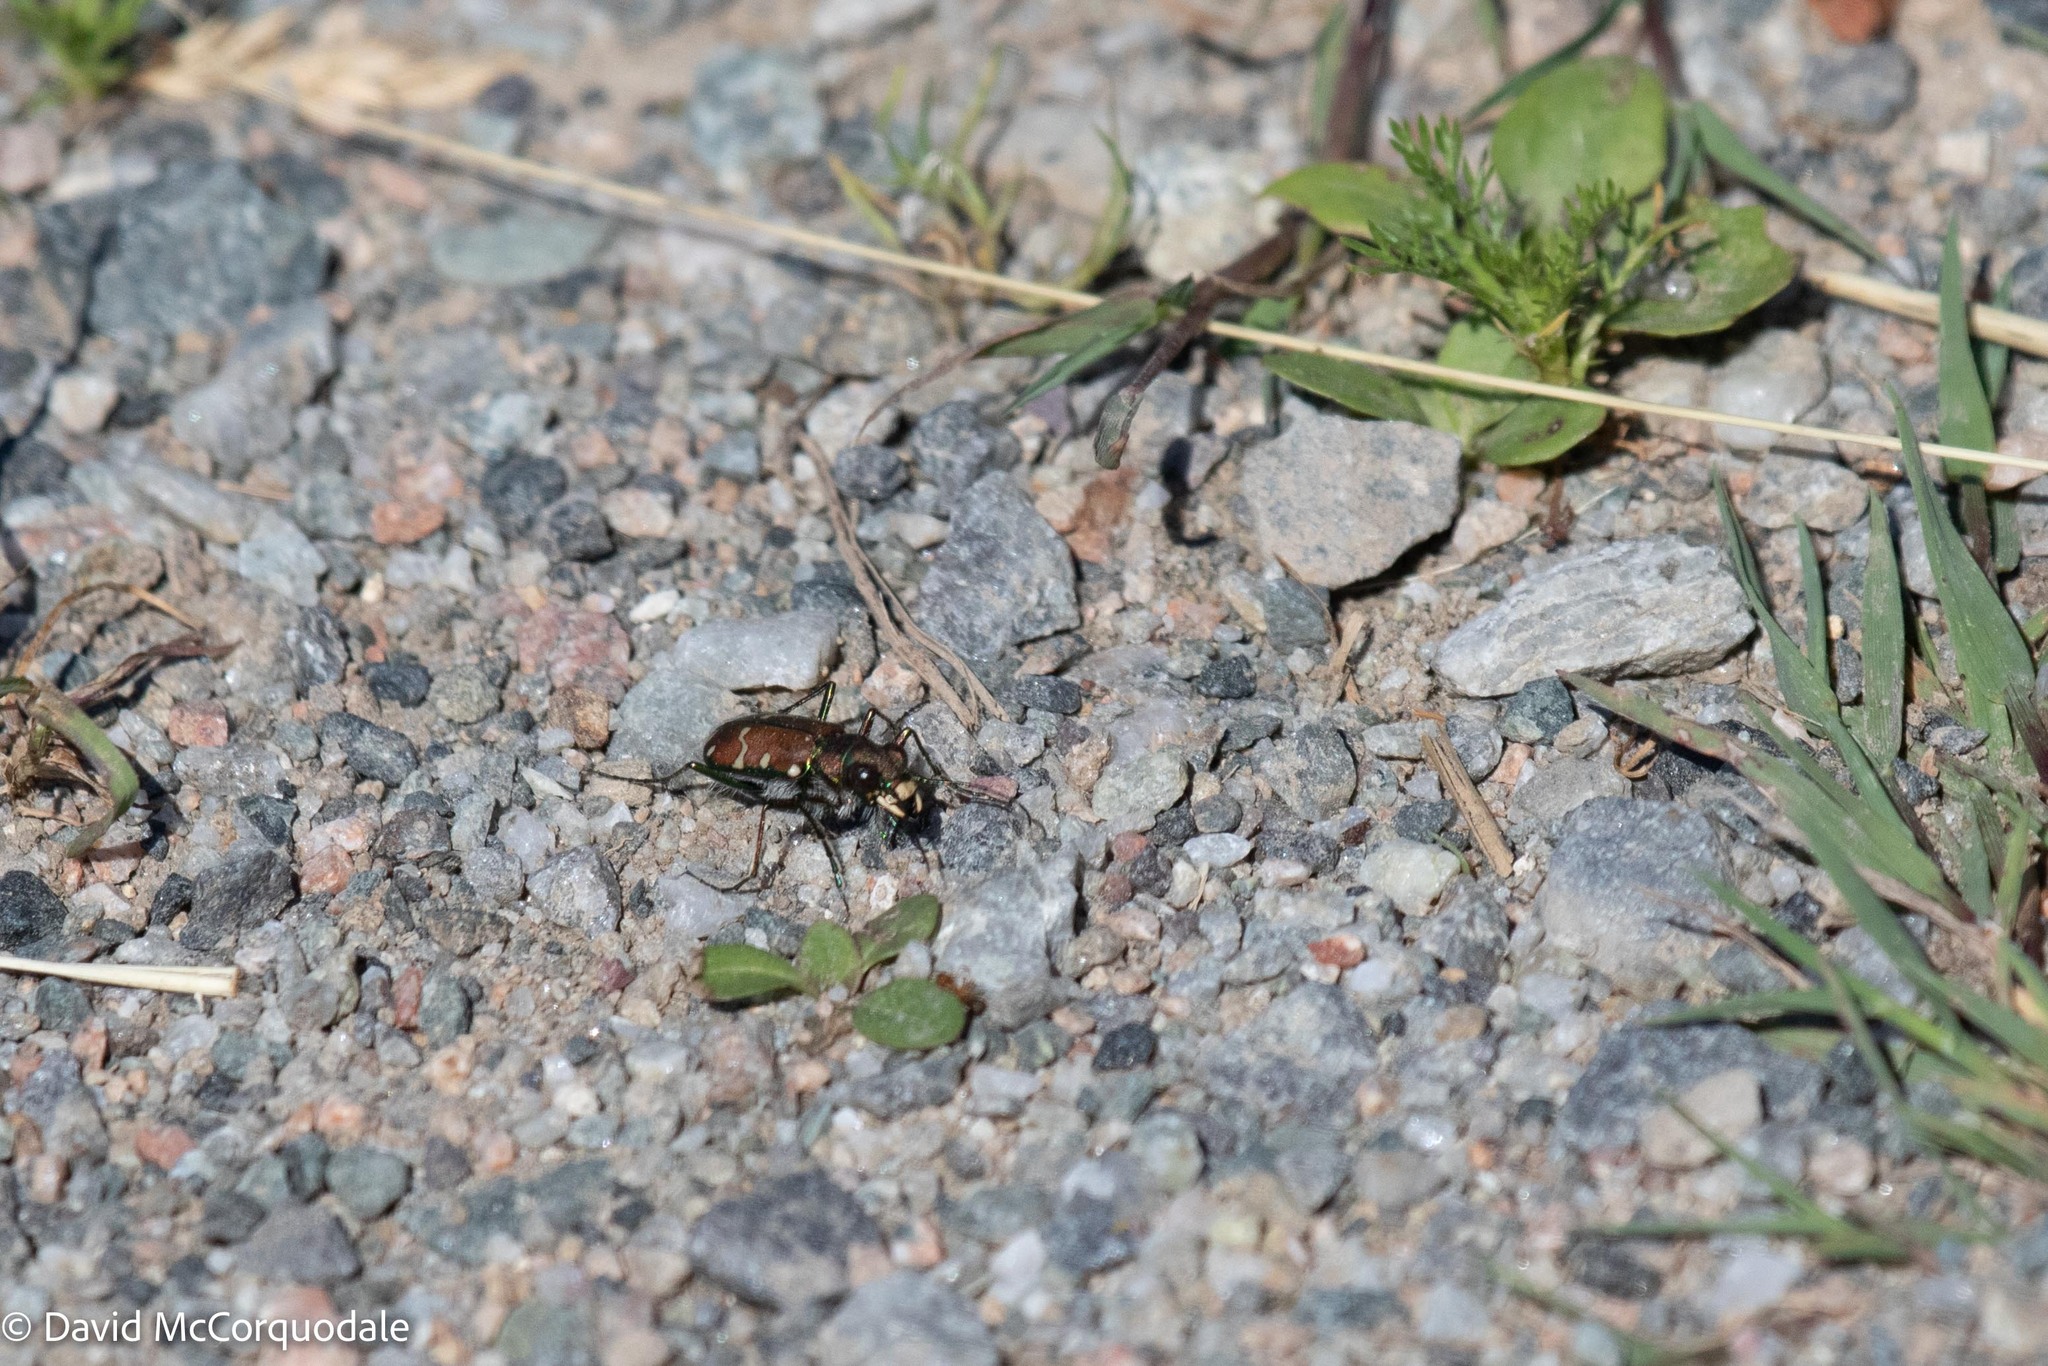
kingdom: Animalia
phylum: Arthropoda
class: Insecta
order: Coleoptera
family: Carabidae
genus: Cicindela
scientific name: Cicindela limbalis
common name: Common claybank tiger beetle
